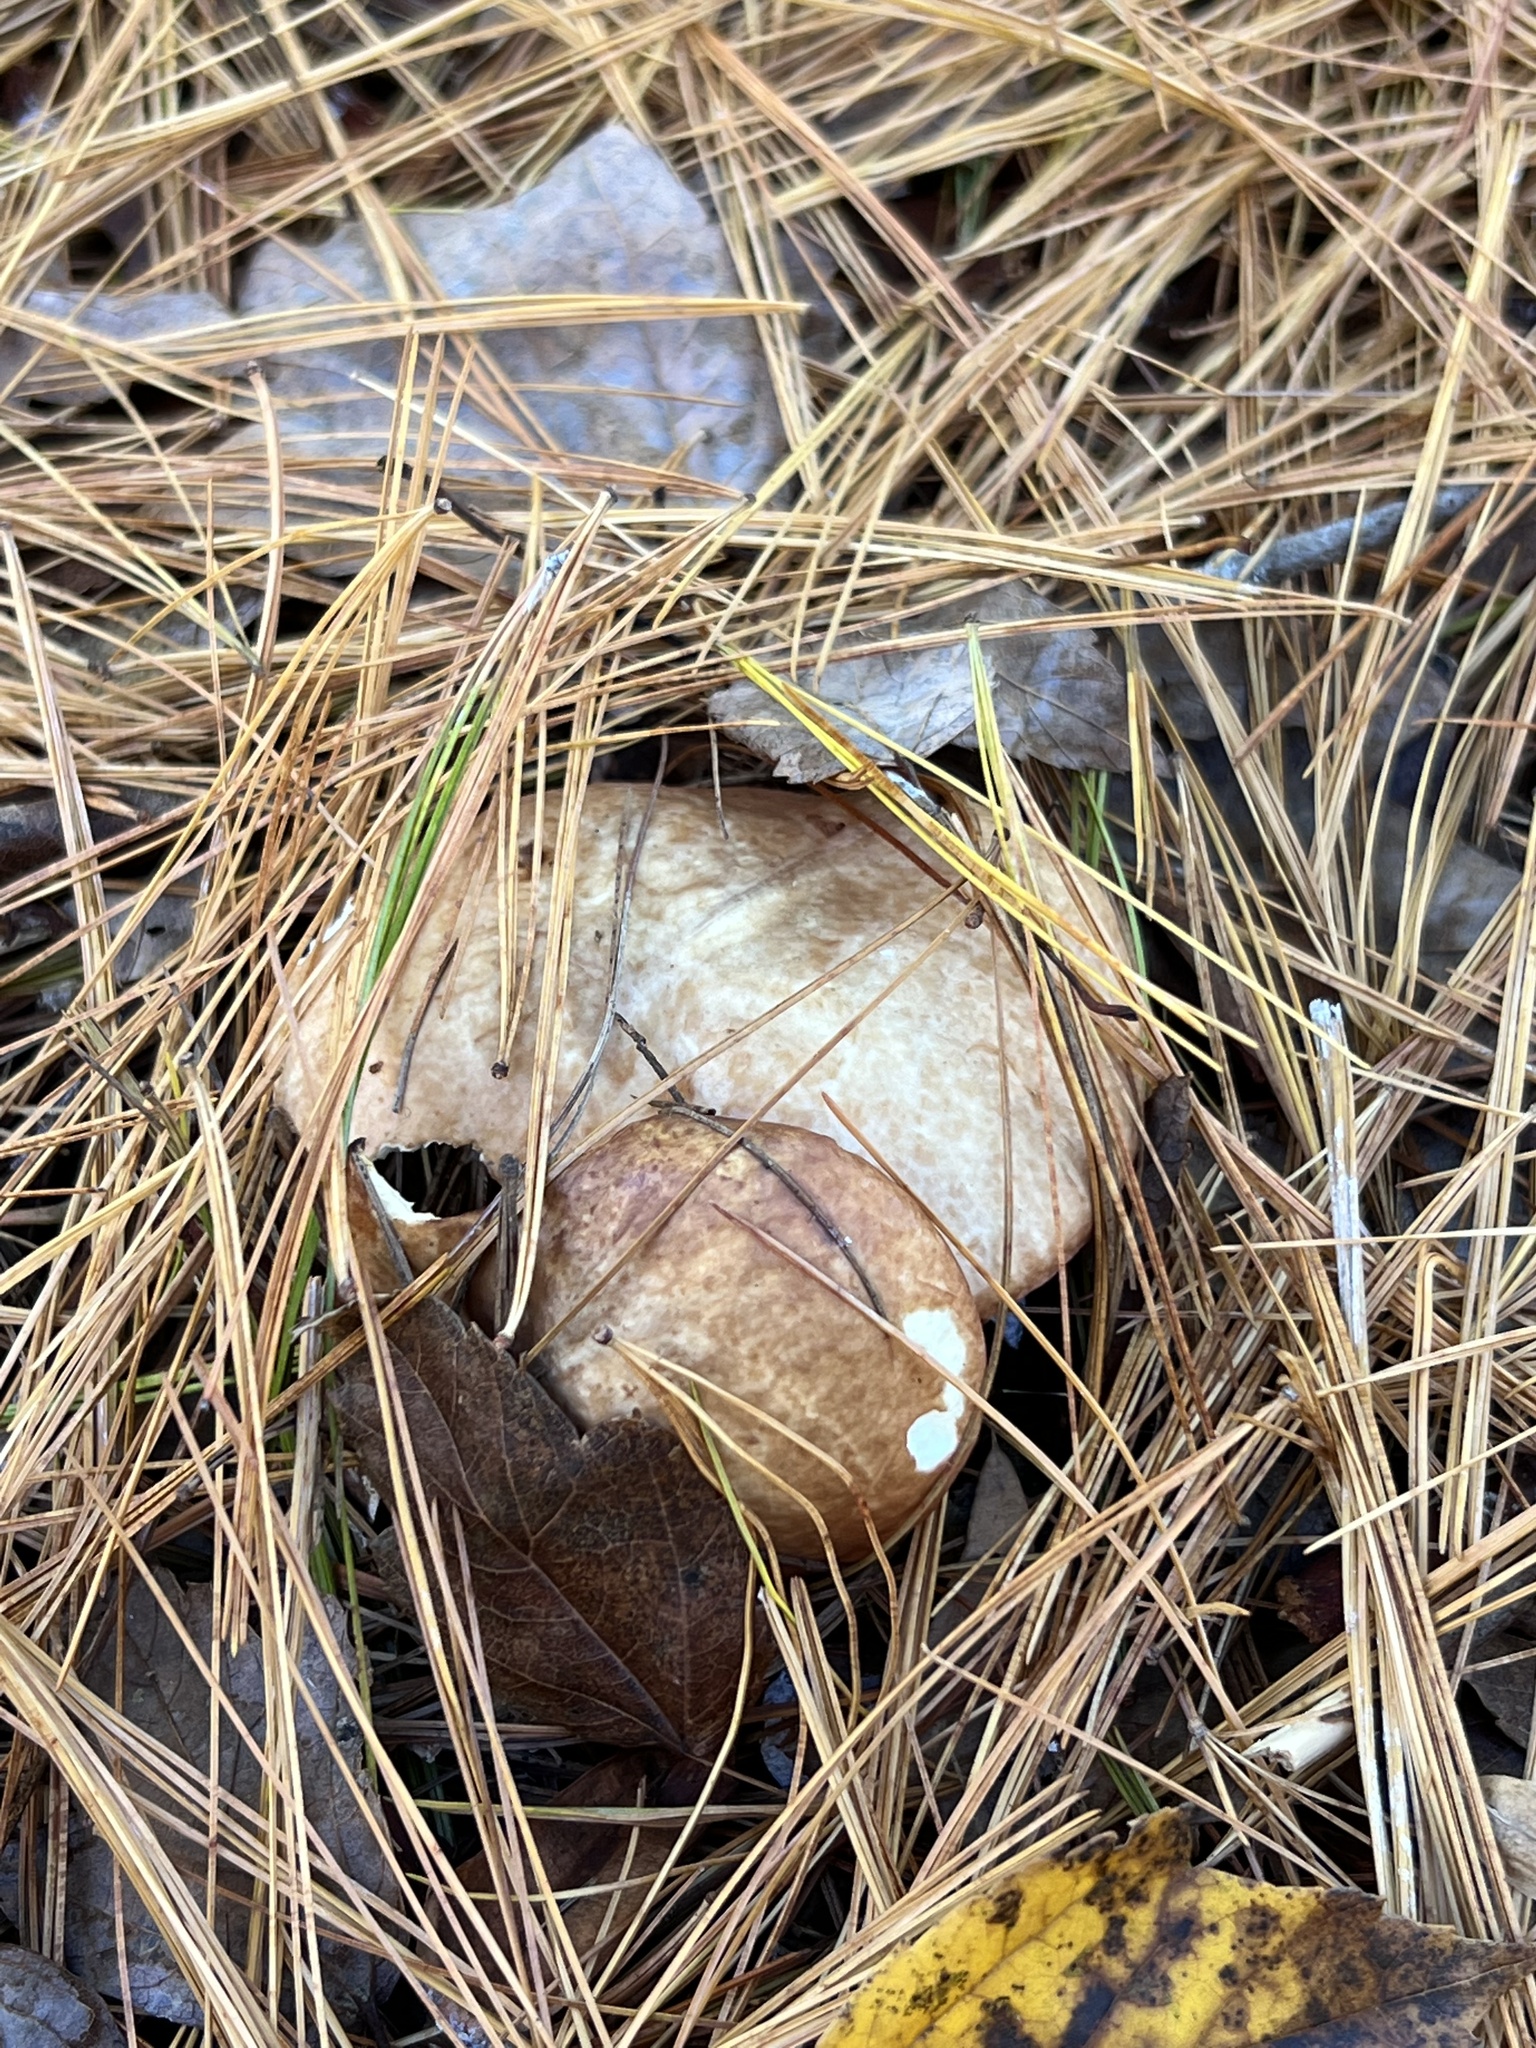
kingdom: Fungi
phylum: Basidiomycota
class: Agaricomycetes
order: Boletales
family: Suillaceae
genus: Fuscoboletinus
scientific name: Fuscoboletinus weaverae
